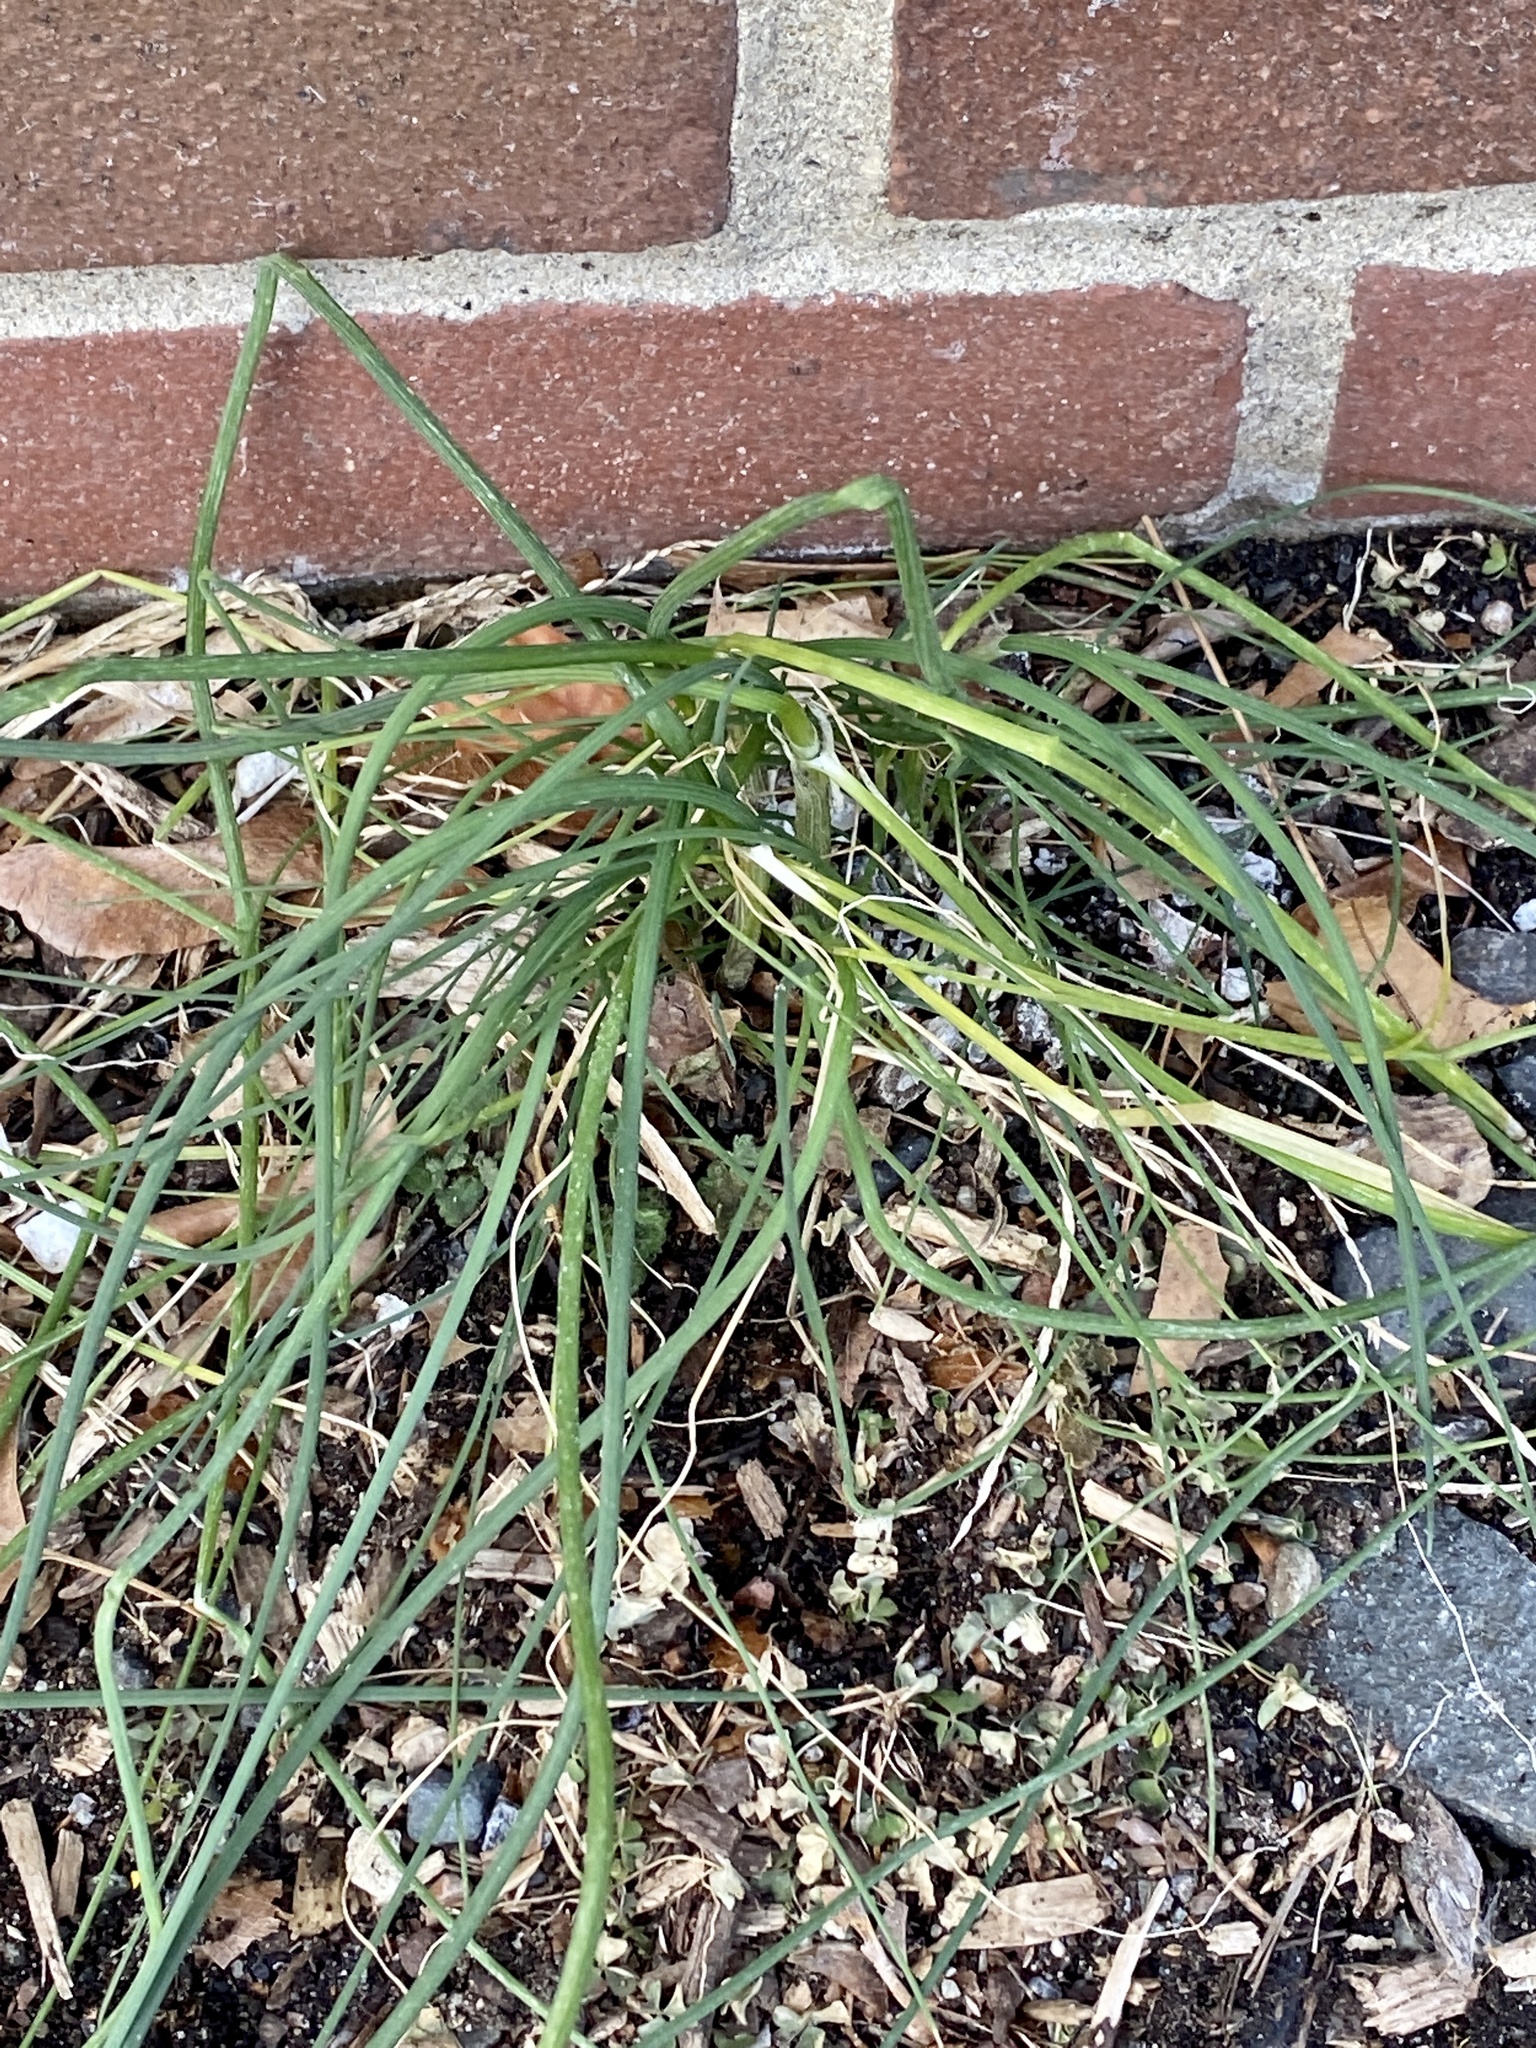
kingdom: Plantae
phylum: Tracheophyta
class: Liliopsida
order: Asparagales
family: Amaryllidaceae
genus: Allium
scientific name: Allium vineale
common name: Crow garlic
